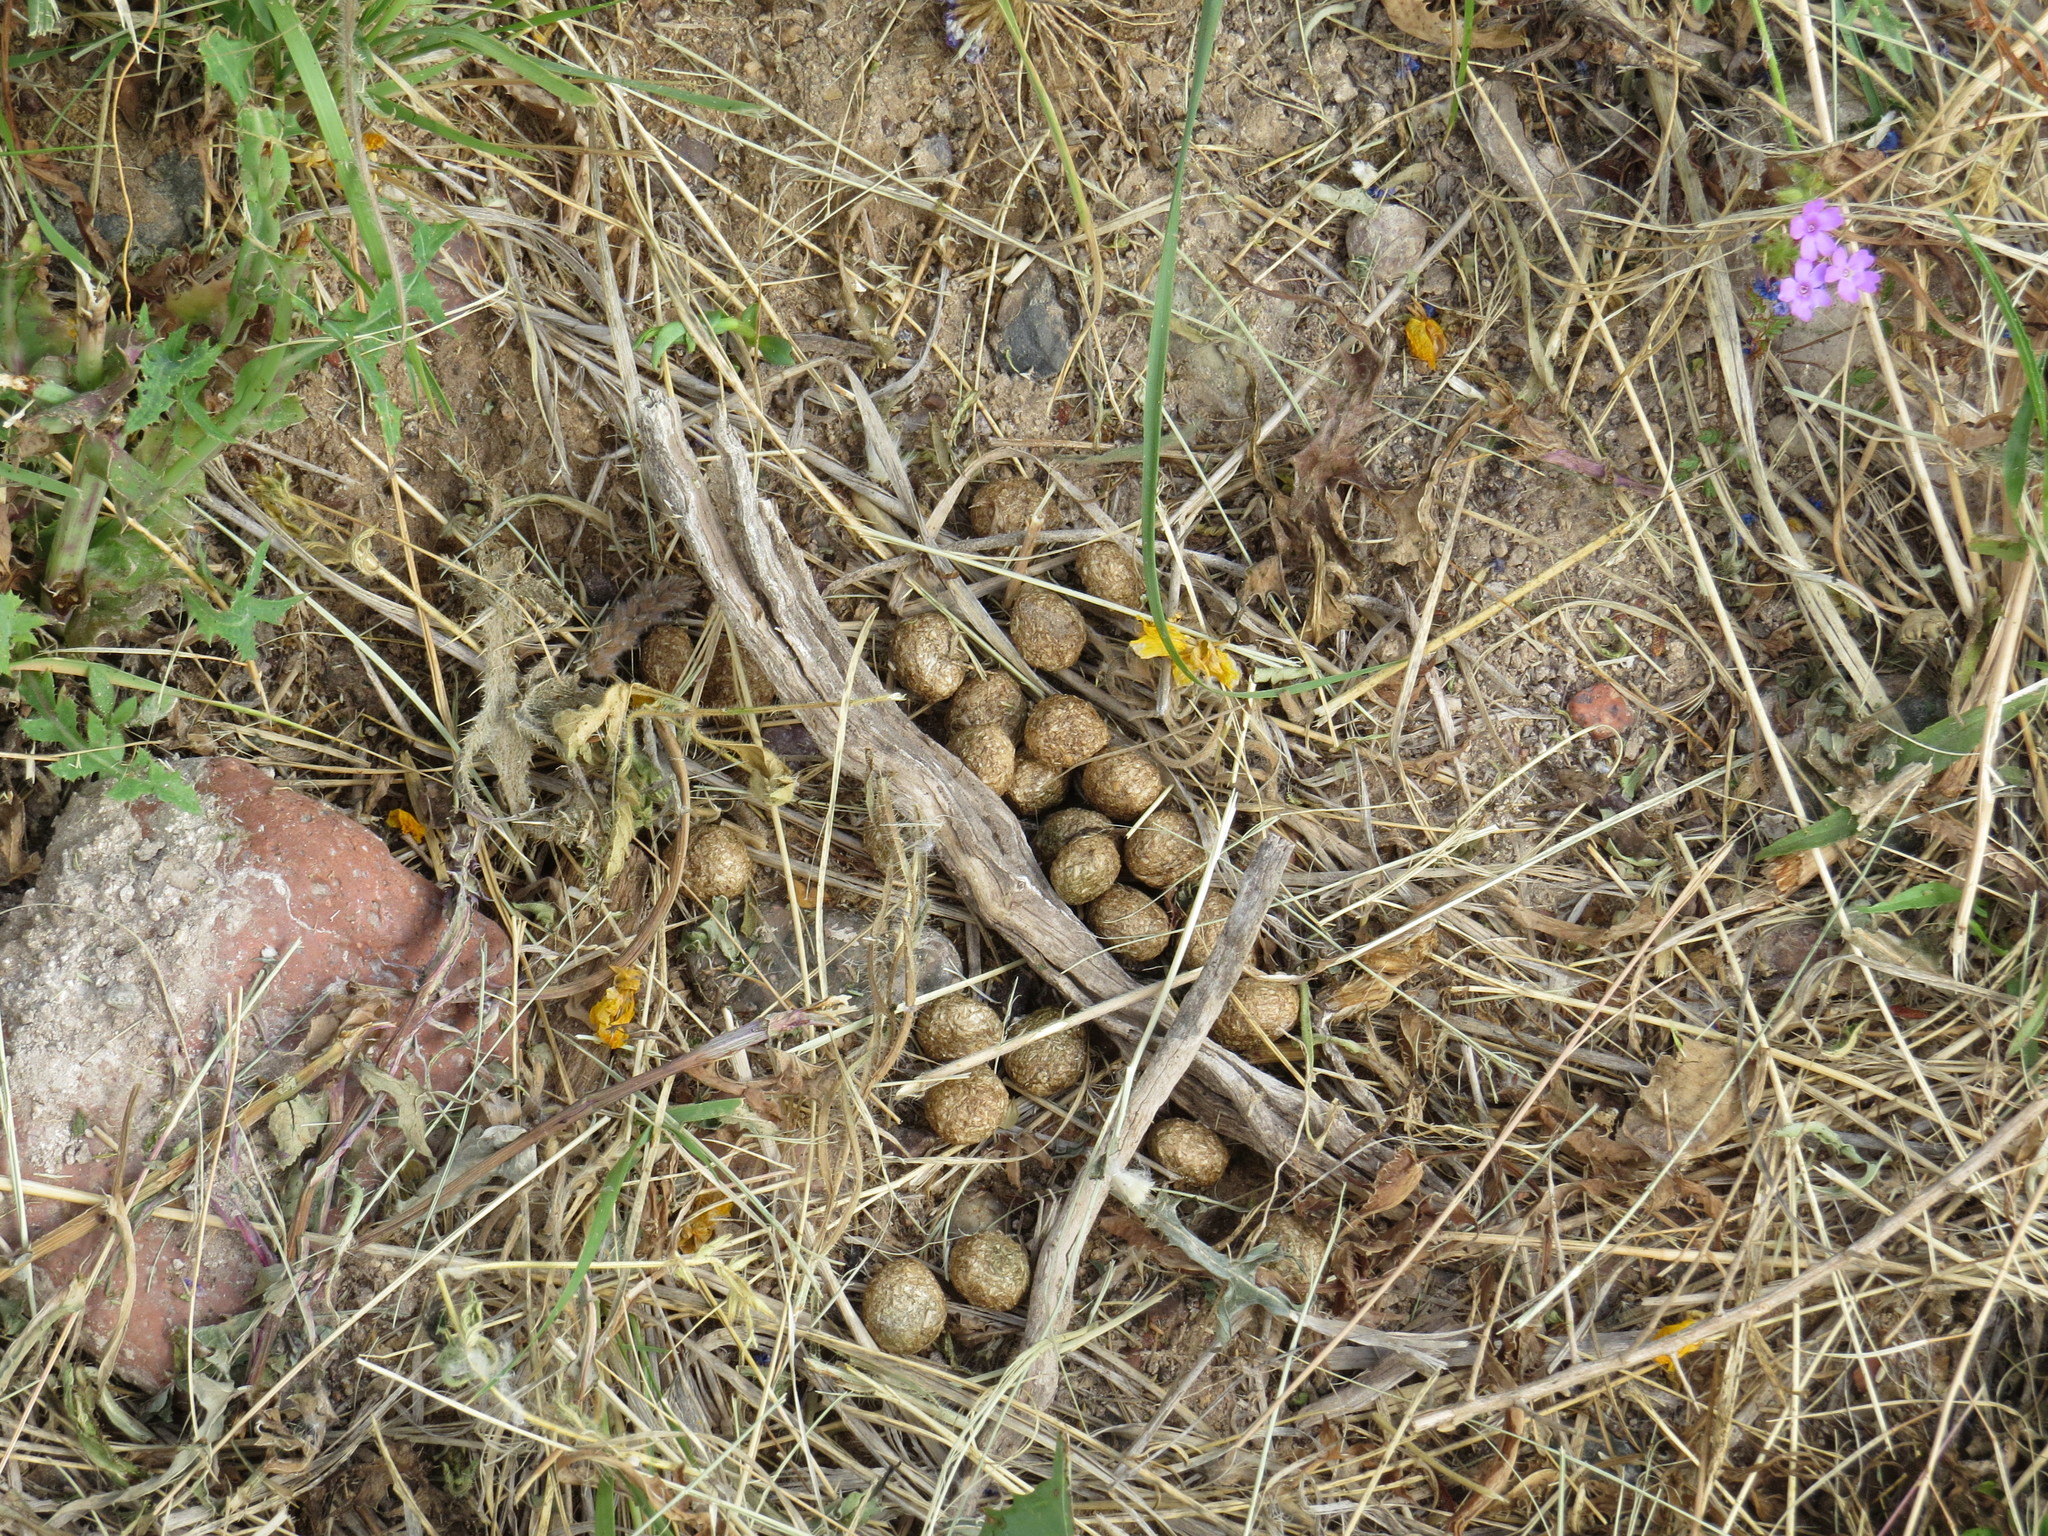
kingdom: Animalia
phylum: Chordata
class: Mammalia
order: Lagomorpha
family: Leporidae
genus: Lepus
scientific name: Lepus europaeus
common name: European hare
